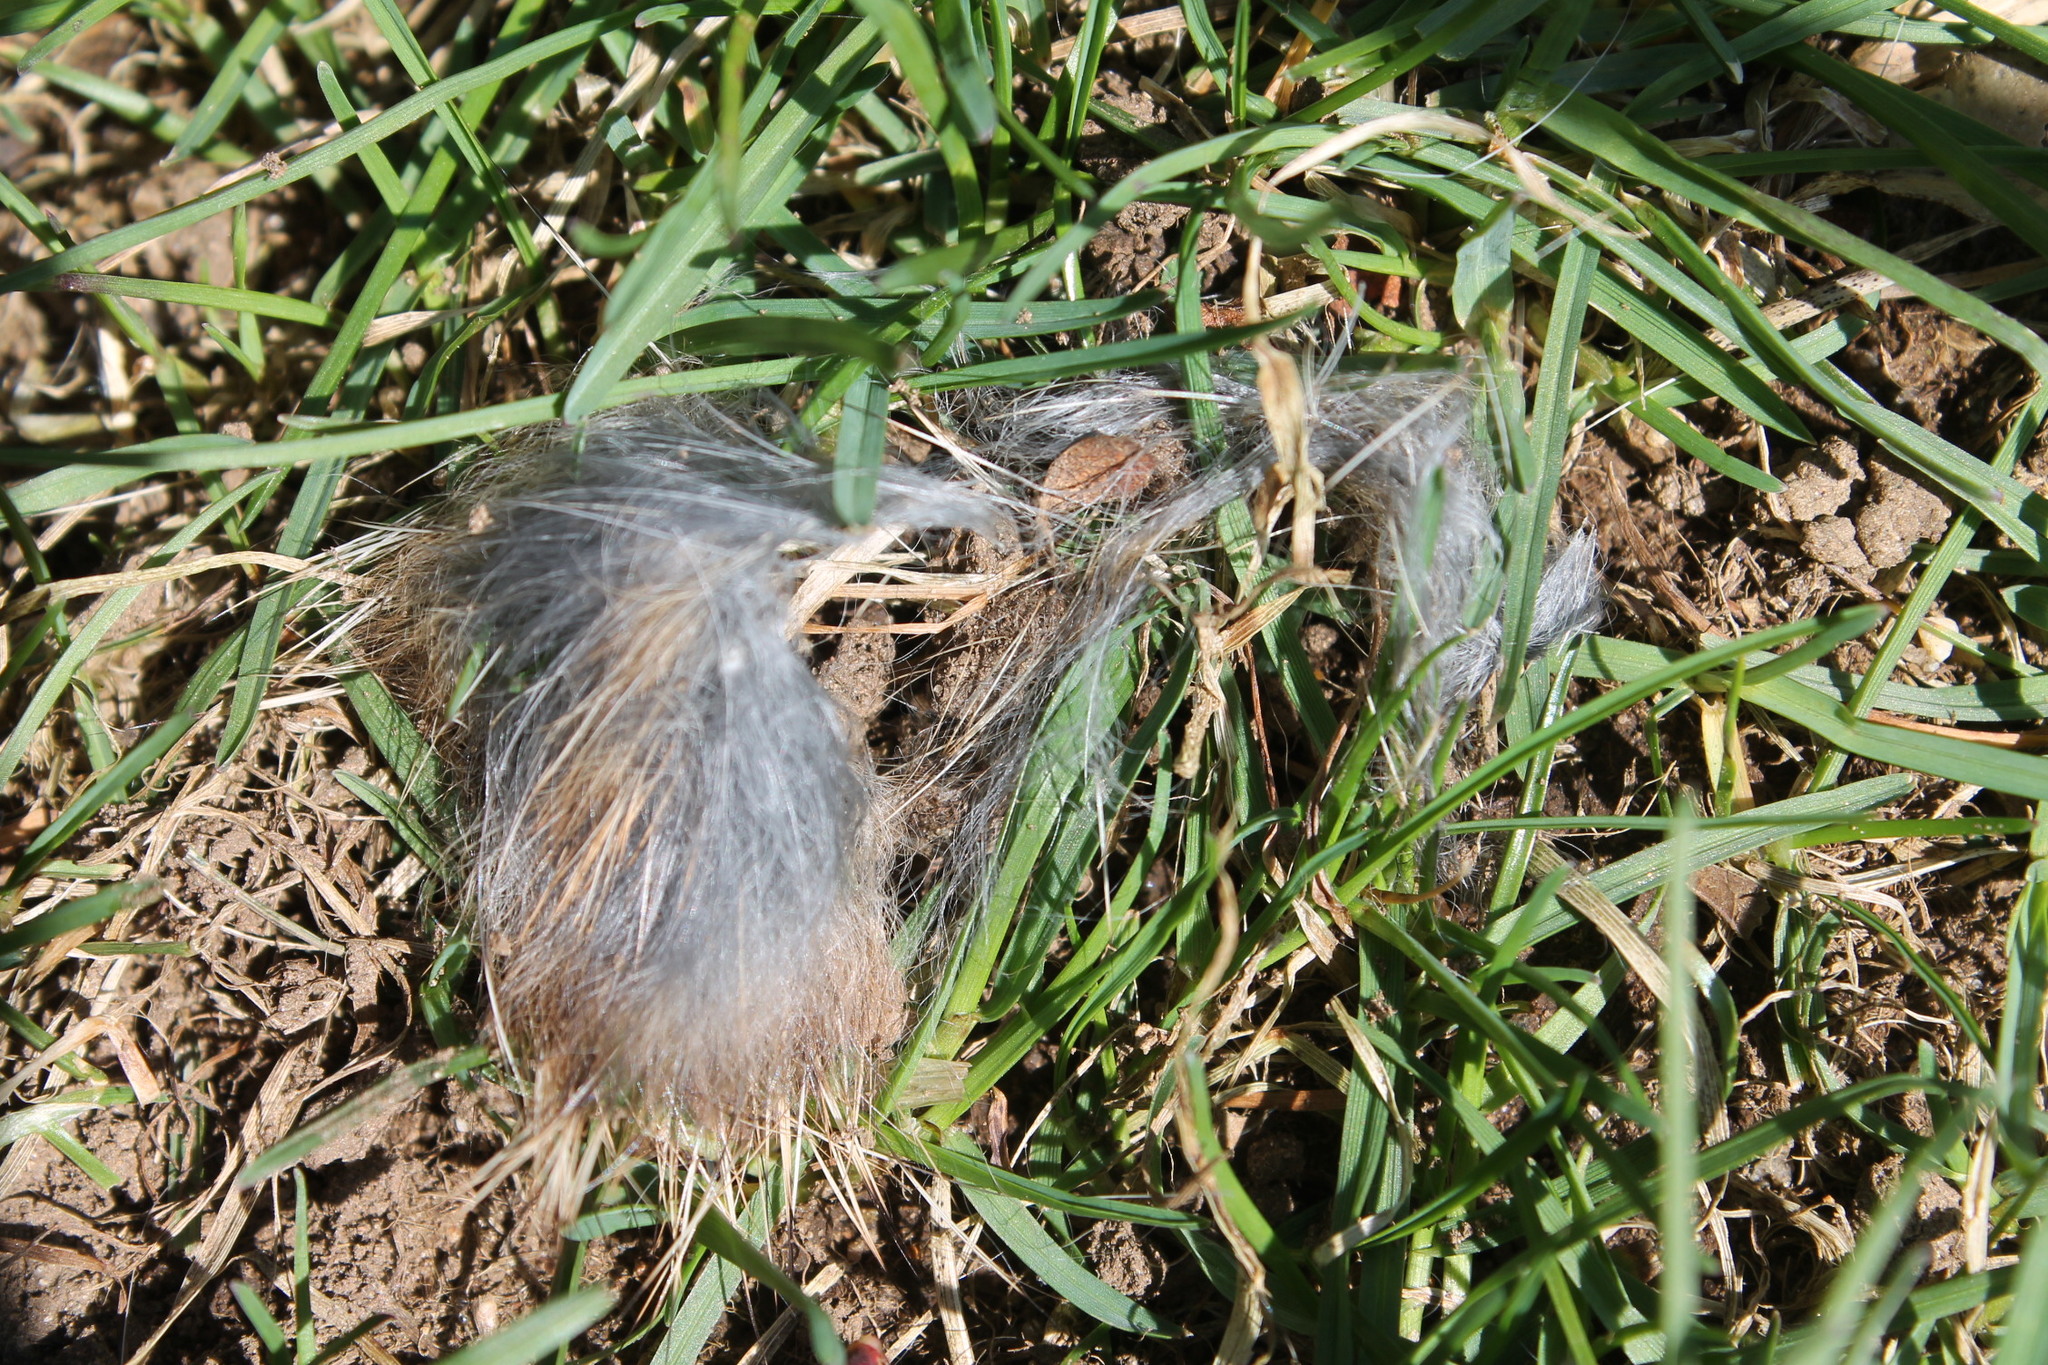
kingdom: Animalia
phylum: Chordata
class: Mammalia
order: Lagomorpha
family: Leporidae
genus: Sylvilagus
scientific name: Sylvilagus floridanus
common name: Eastern cottontail
